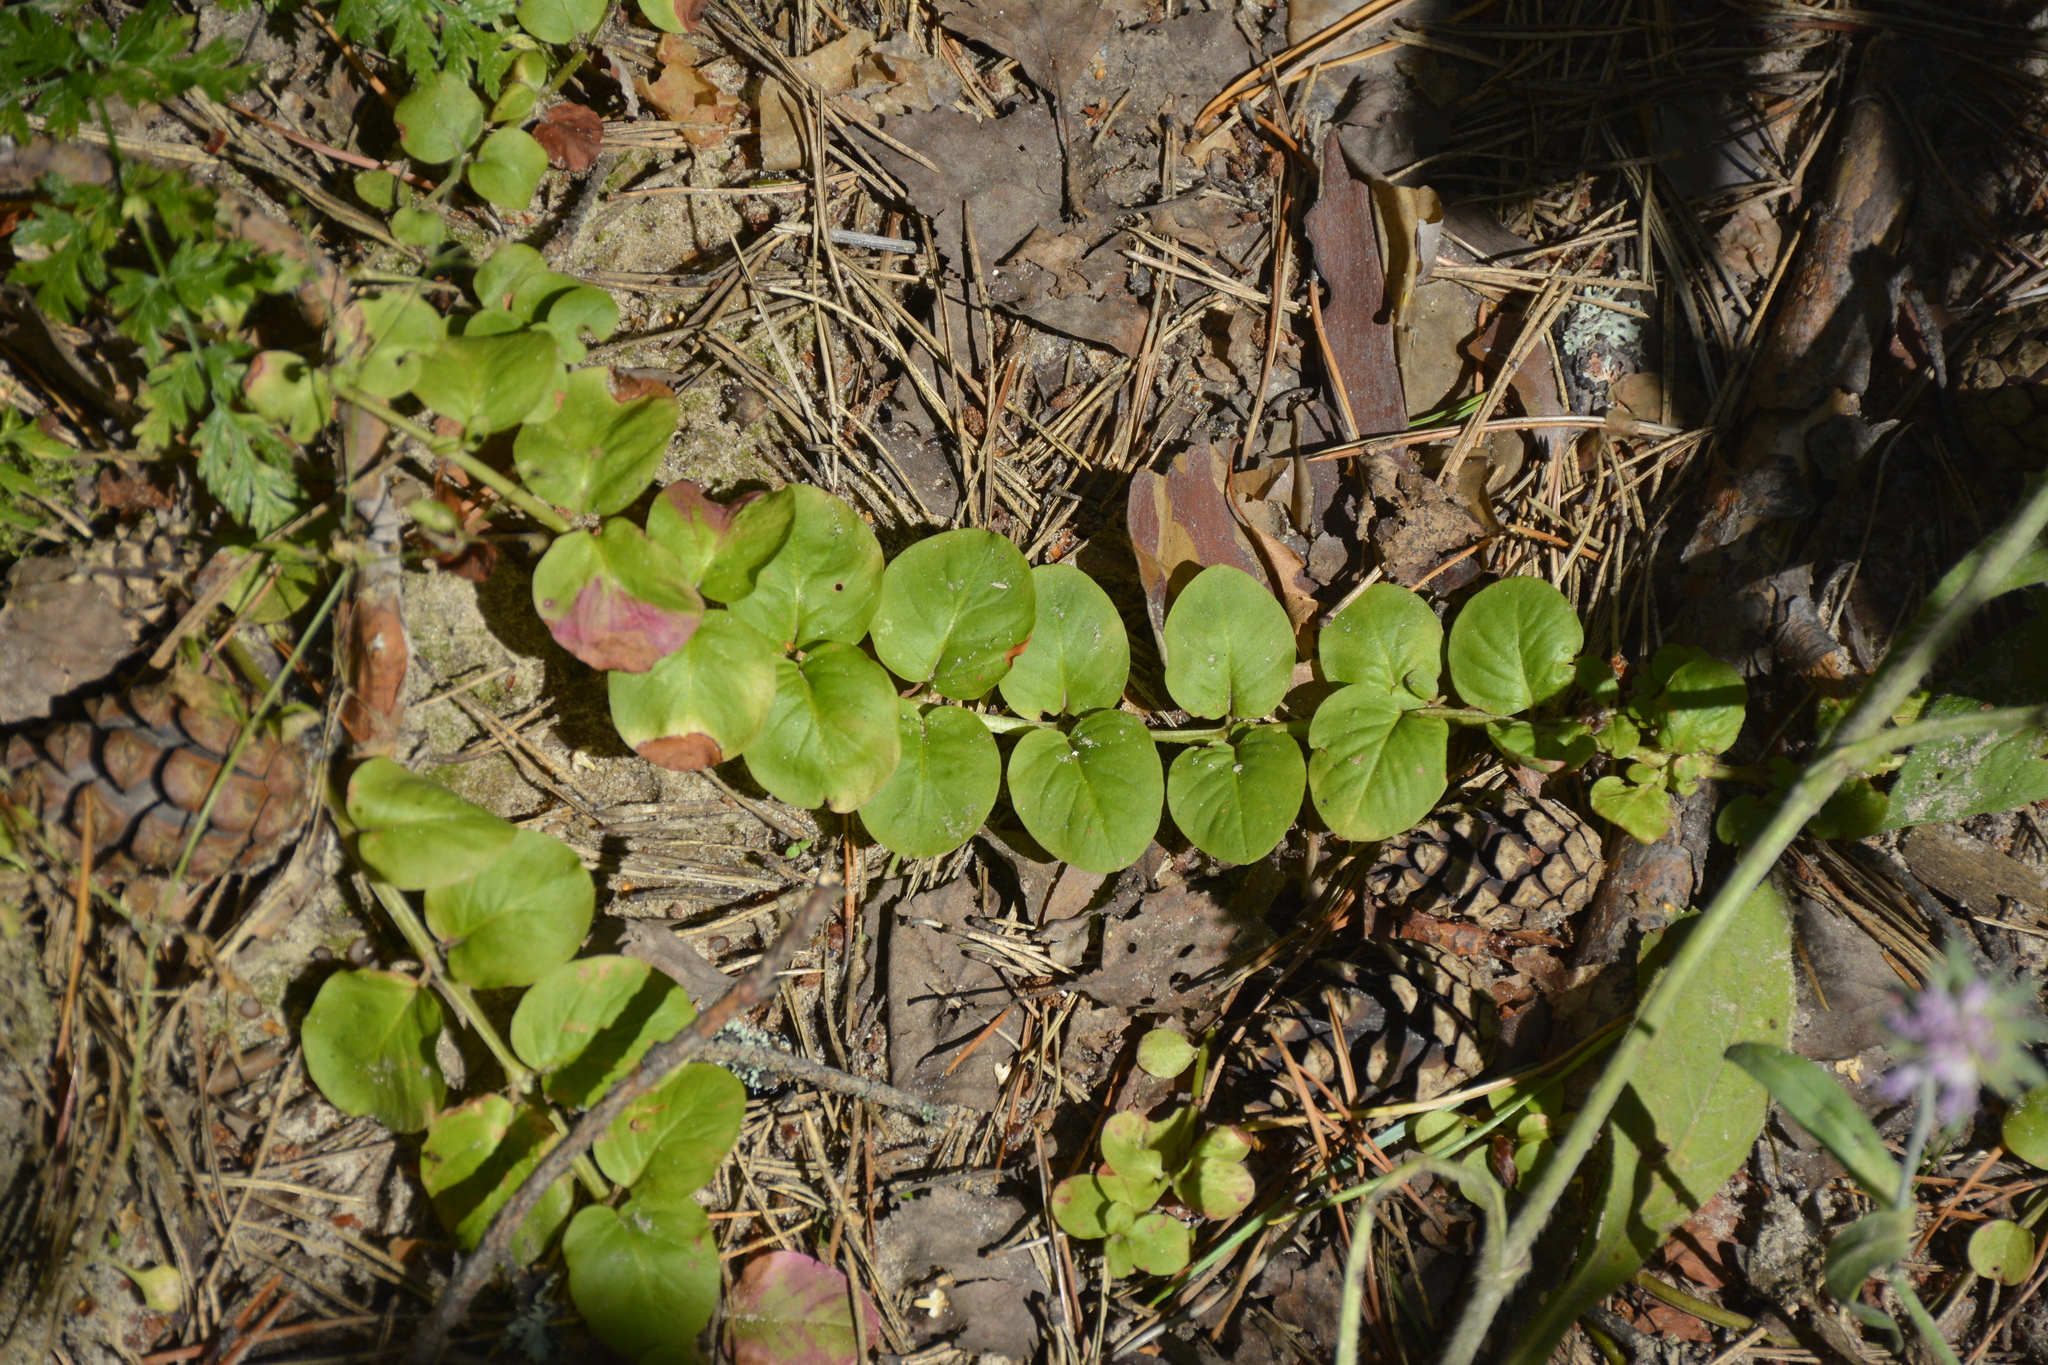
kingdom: Plantae
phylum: Tracheophyta
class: Magnoliopsida
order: Ericales
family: Primulaceae
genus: Lysimachia
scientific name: Lysimachia nummularia
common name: Moneywort
